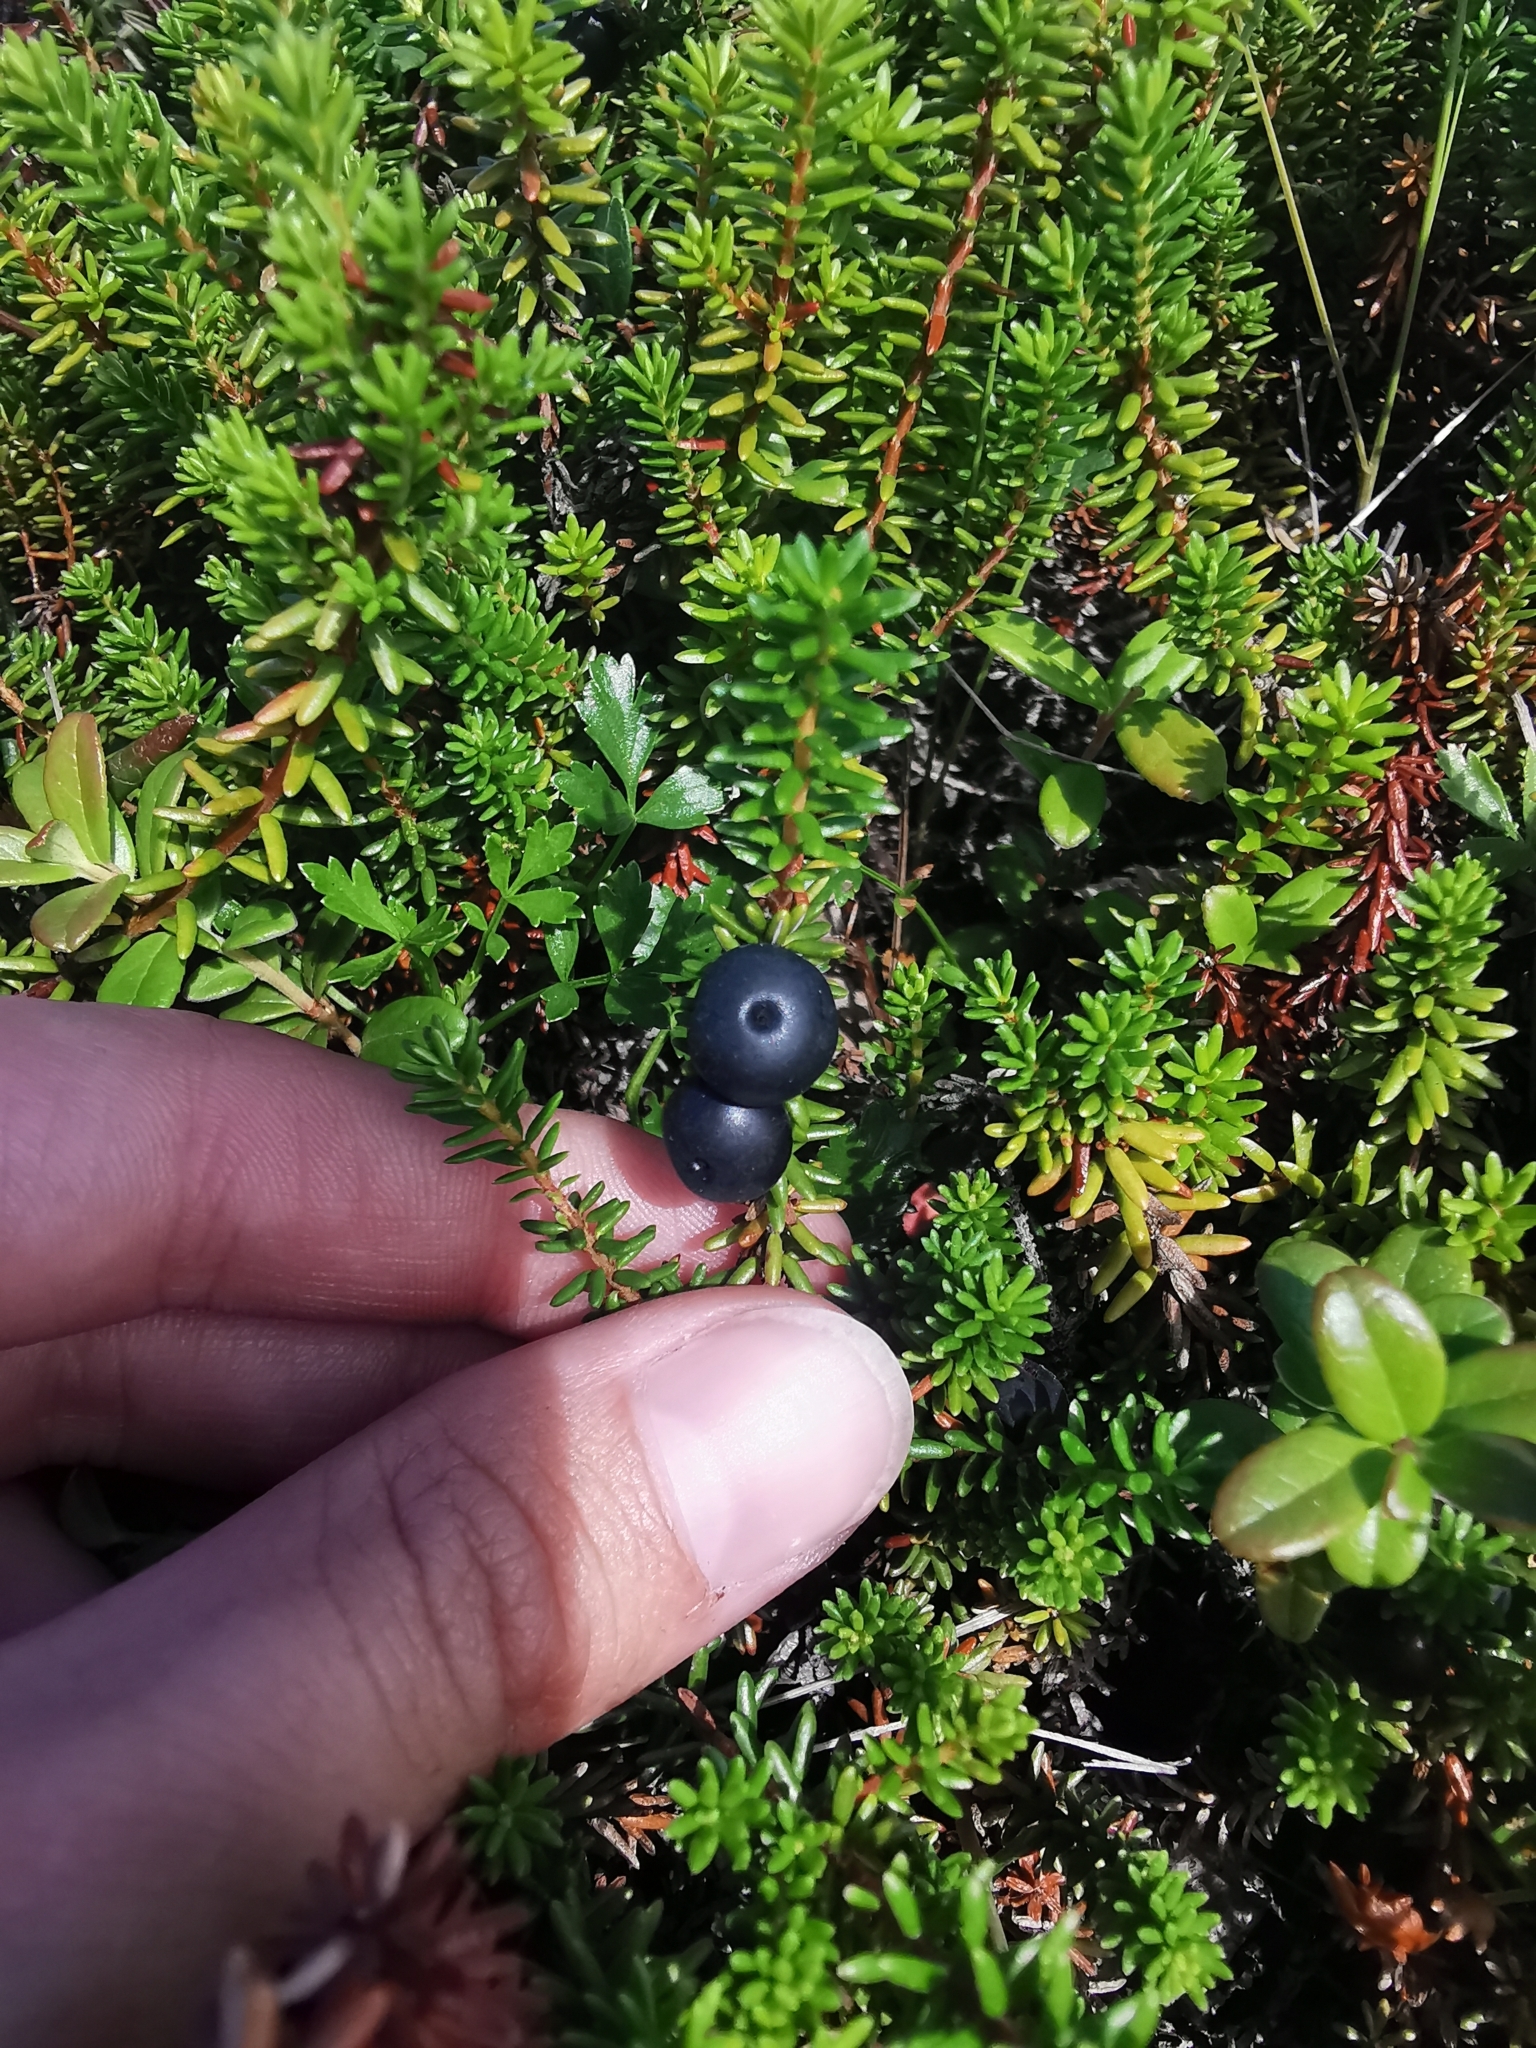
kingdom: Plantae
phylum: Tracheophyta
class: Magnoliopsida
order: Ericales
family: Ericaceae
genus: Empetrum
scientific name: Empetrum nigrum
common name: Black crowberry
